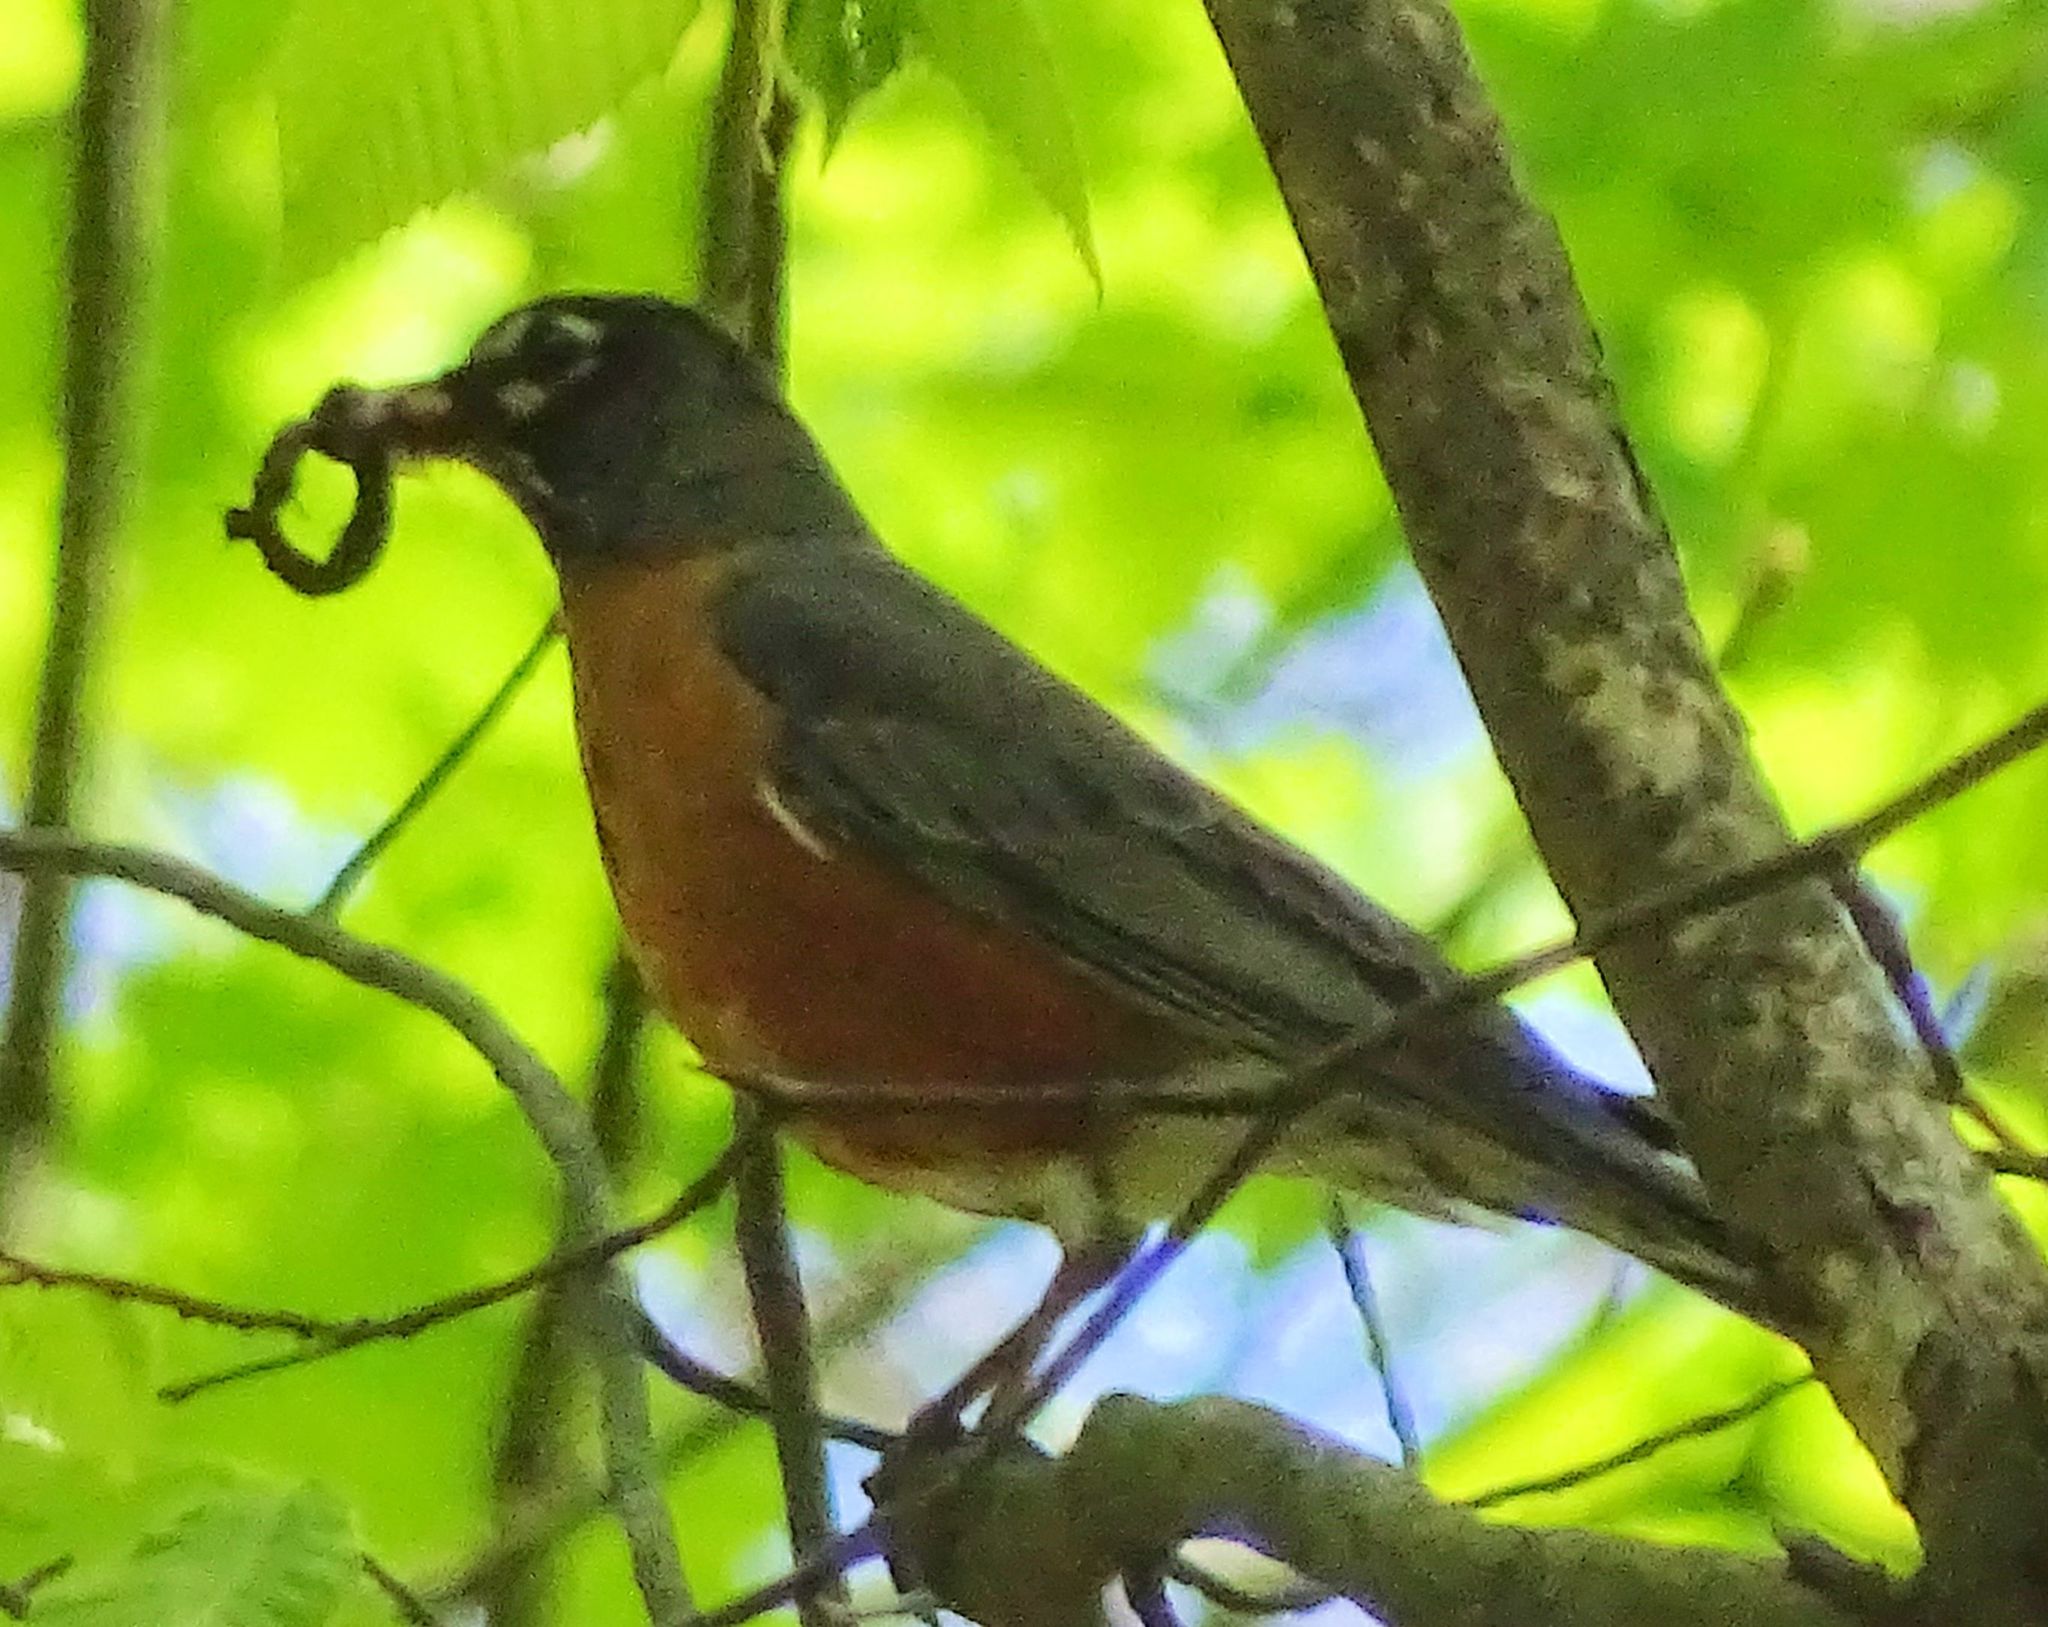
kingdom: Animalia
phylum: Chordata
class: Aves
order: Passeriformes
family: Turdidae
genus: Turdus
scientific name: Turdus migratorius
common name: American robin
